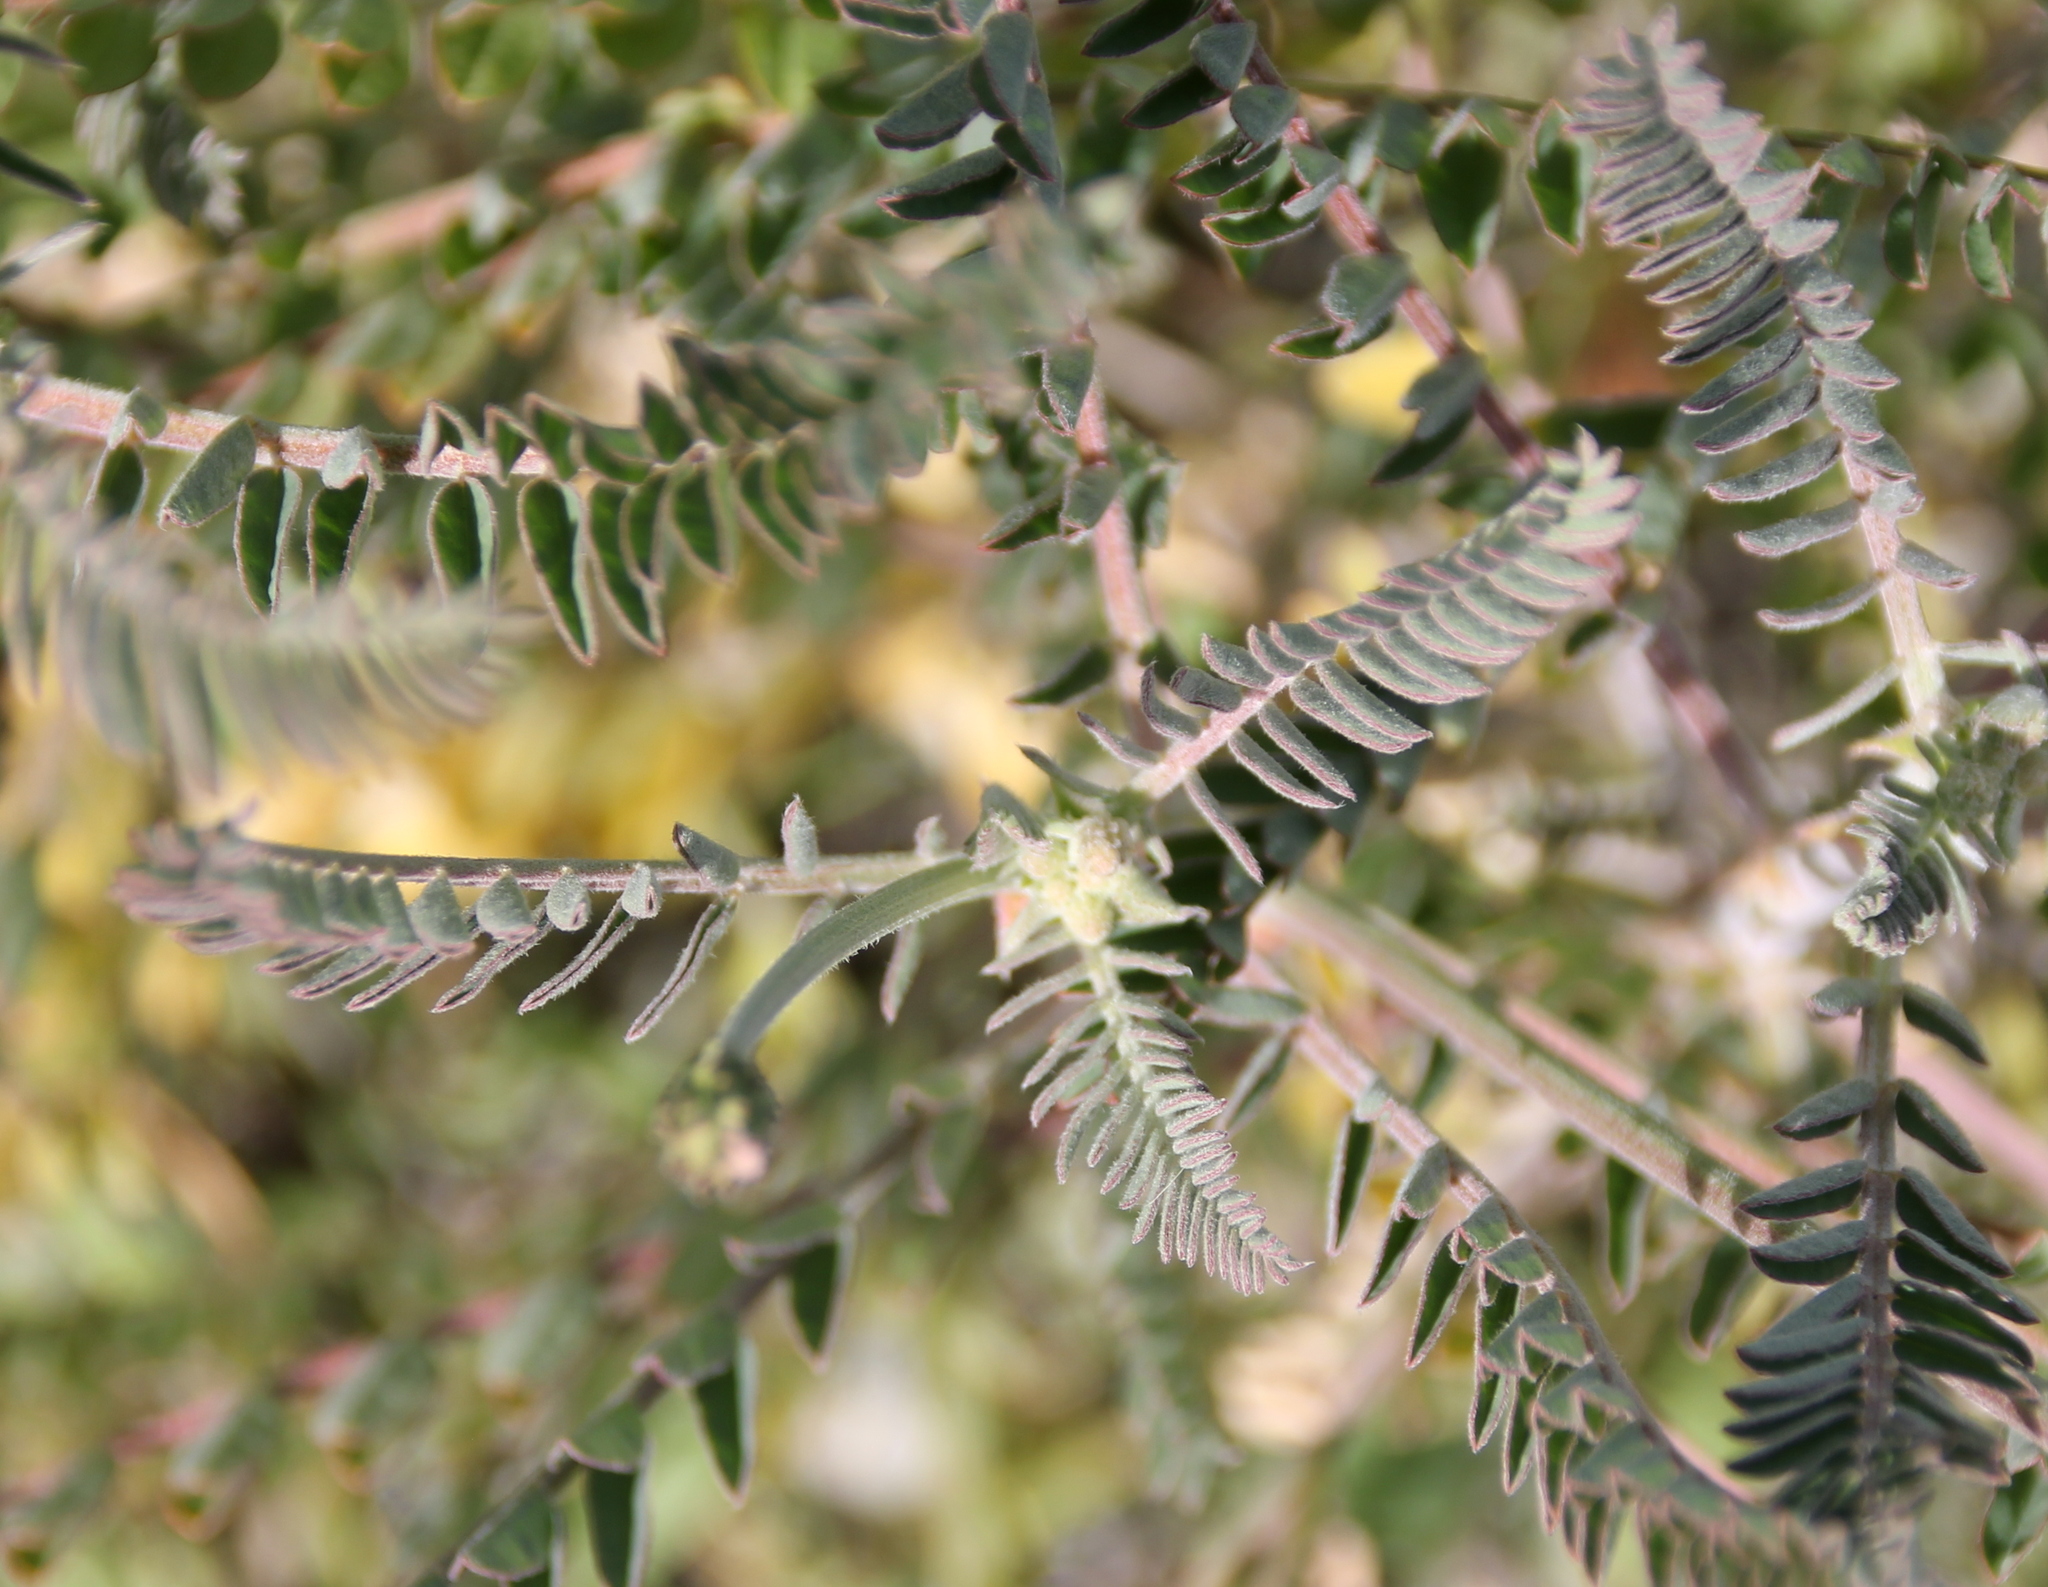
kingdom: Plantae
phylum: Tracheophyta
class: Magnoliopsida
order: Fabales
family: Fabaceae
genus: Astragalus
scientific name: Astragalus trichopodus
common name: Santa barbara milk-vetch
